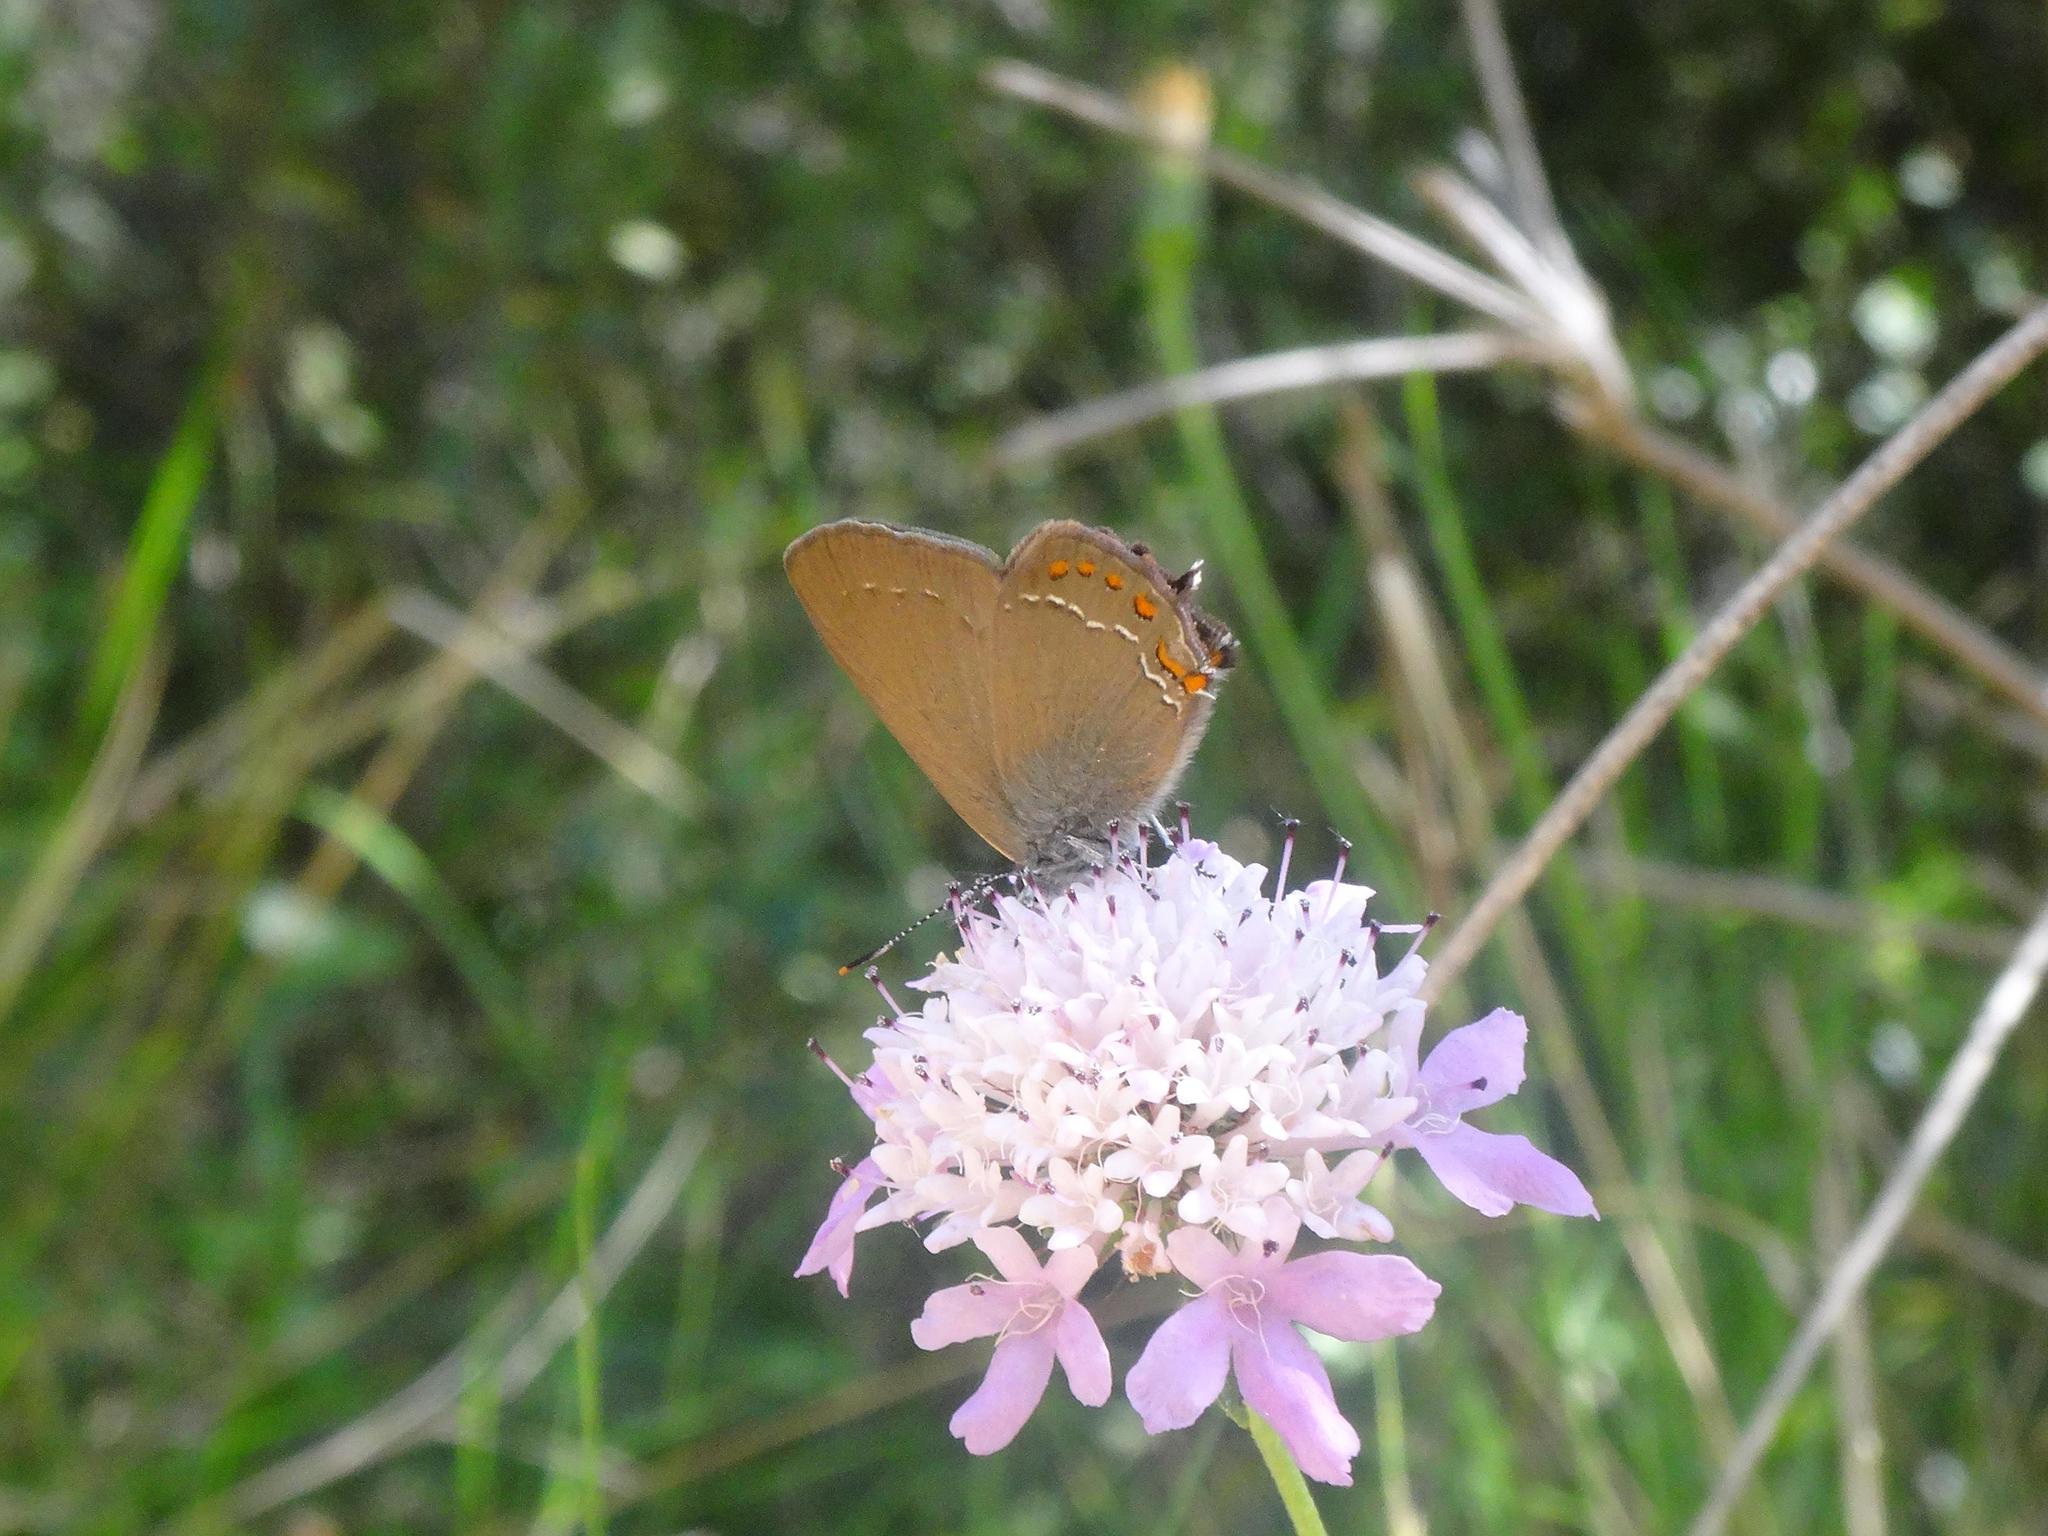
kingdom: Animalia
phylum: Arthropoda
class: Insecta
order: Lepidoptera
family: Lycaenidae
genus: Fixsenia
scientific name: Fixsenia esculi
